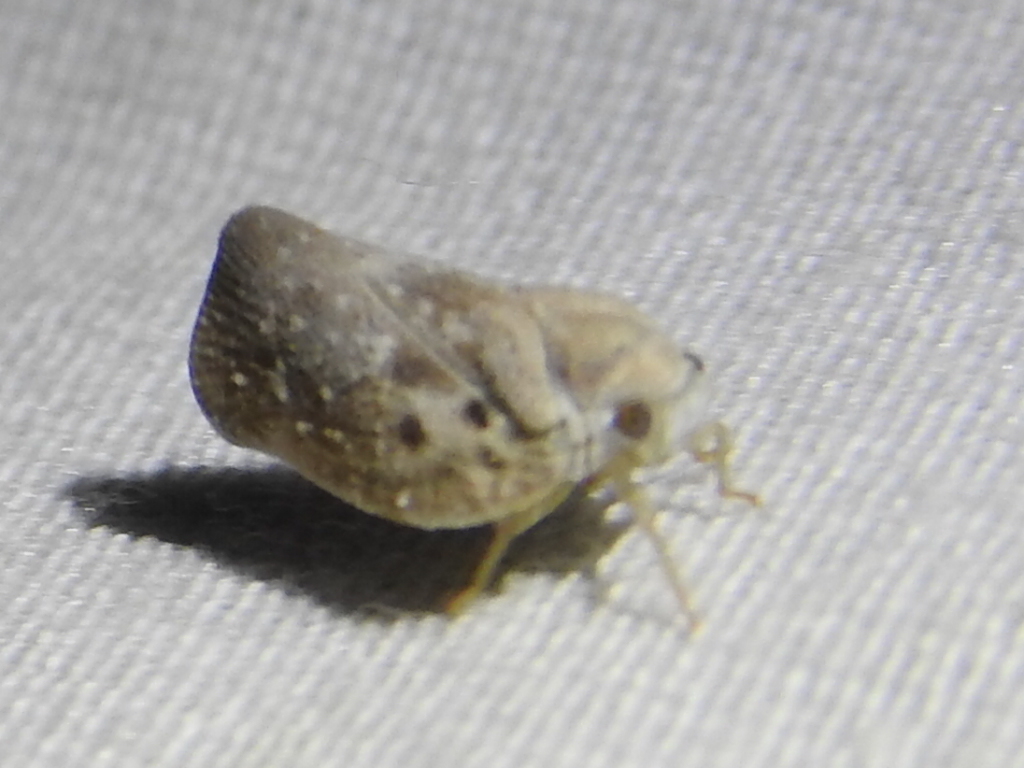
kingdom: Animalia
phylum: Arthropoda
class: Insecta
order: Hemiptera
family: Flatidae
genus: Metcalfa
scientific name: Metcalfa pruinosa
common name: Citrus flatid planthopper
